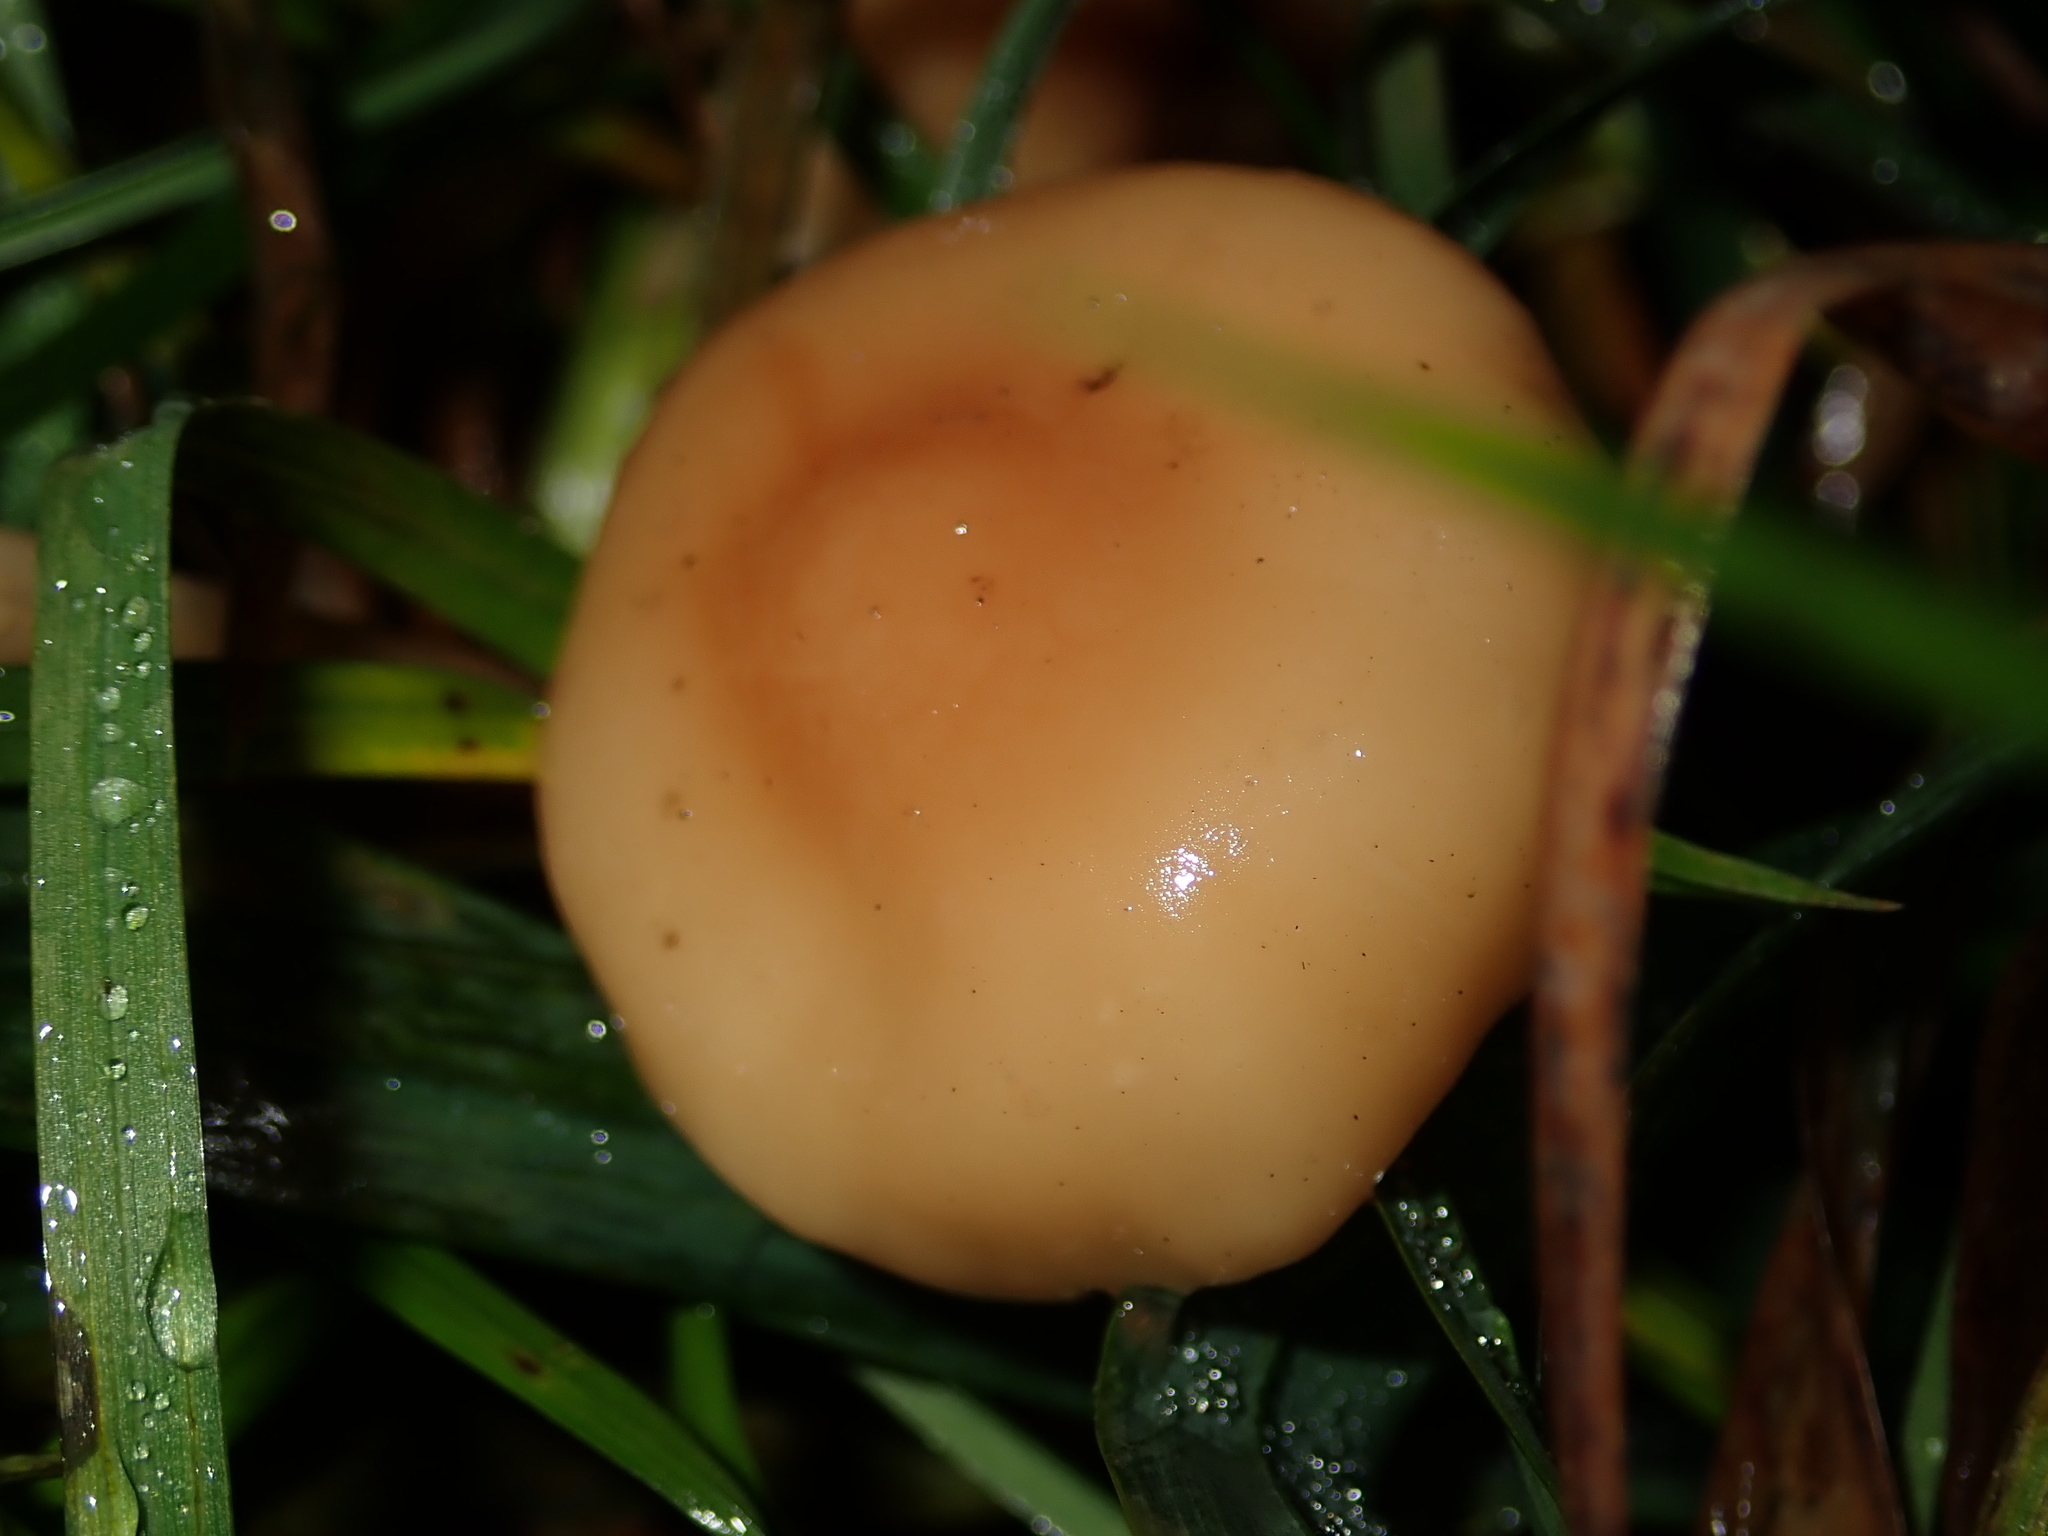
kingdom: Fungi
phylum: Basidiomycota
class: Agaricomycetes
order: Agaricales
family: Marasmiaceae
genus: Marasmius
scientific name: Marasmius oreades
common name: Fairy ring champignon
